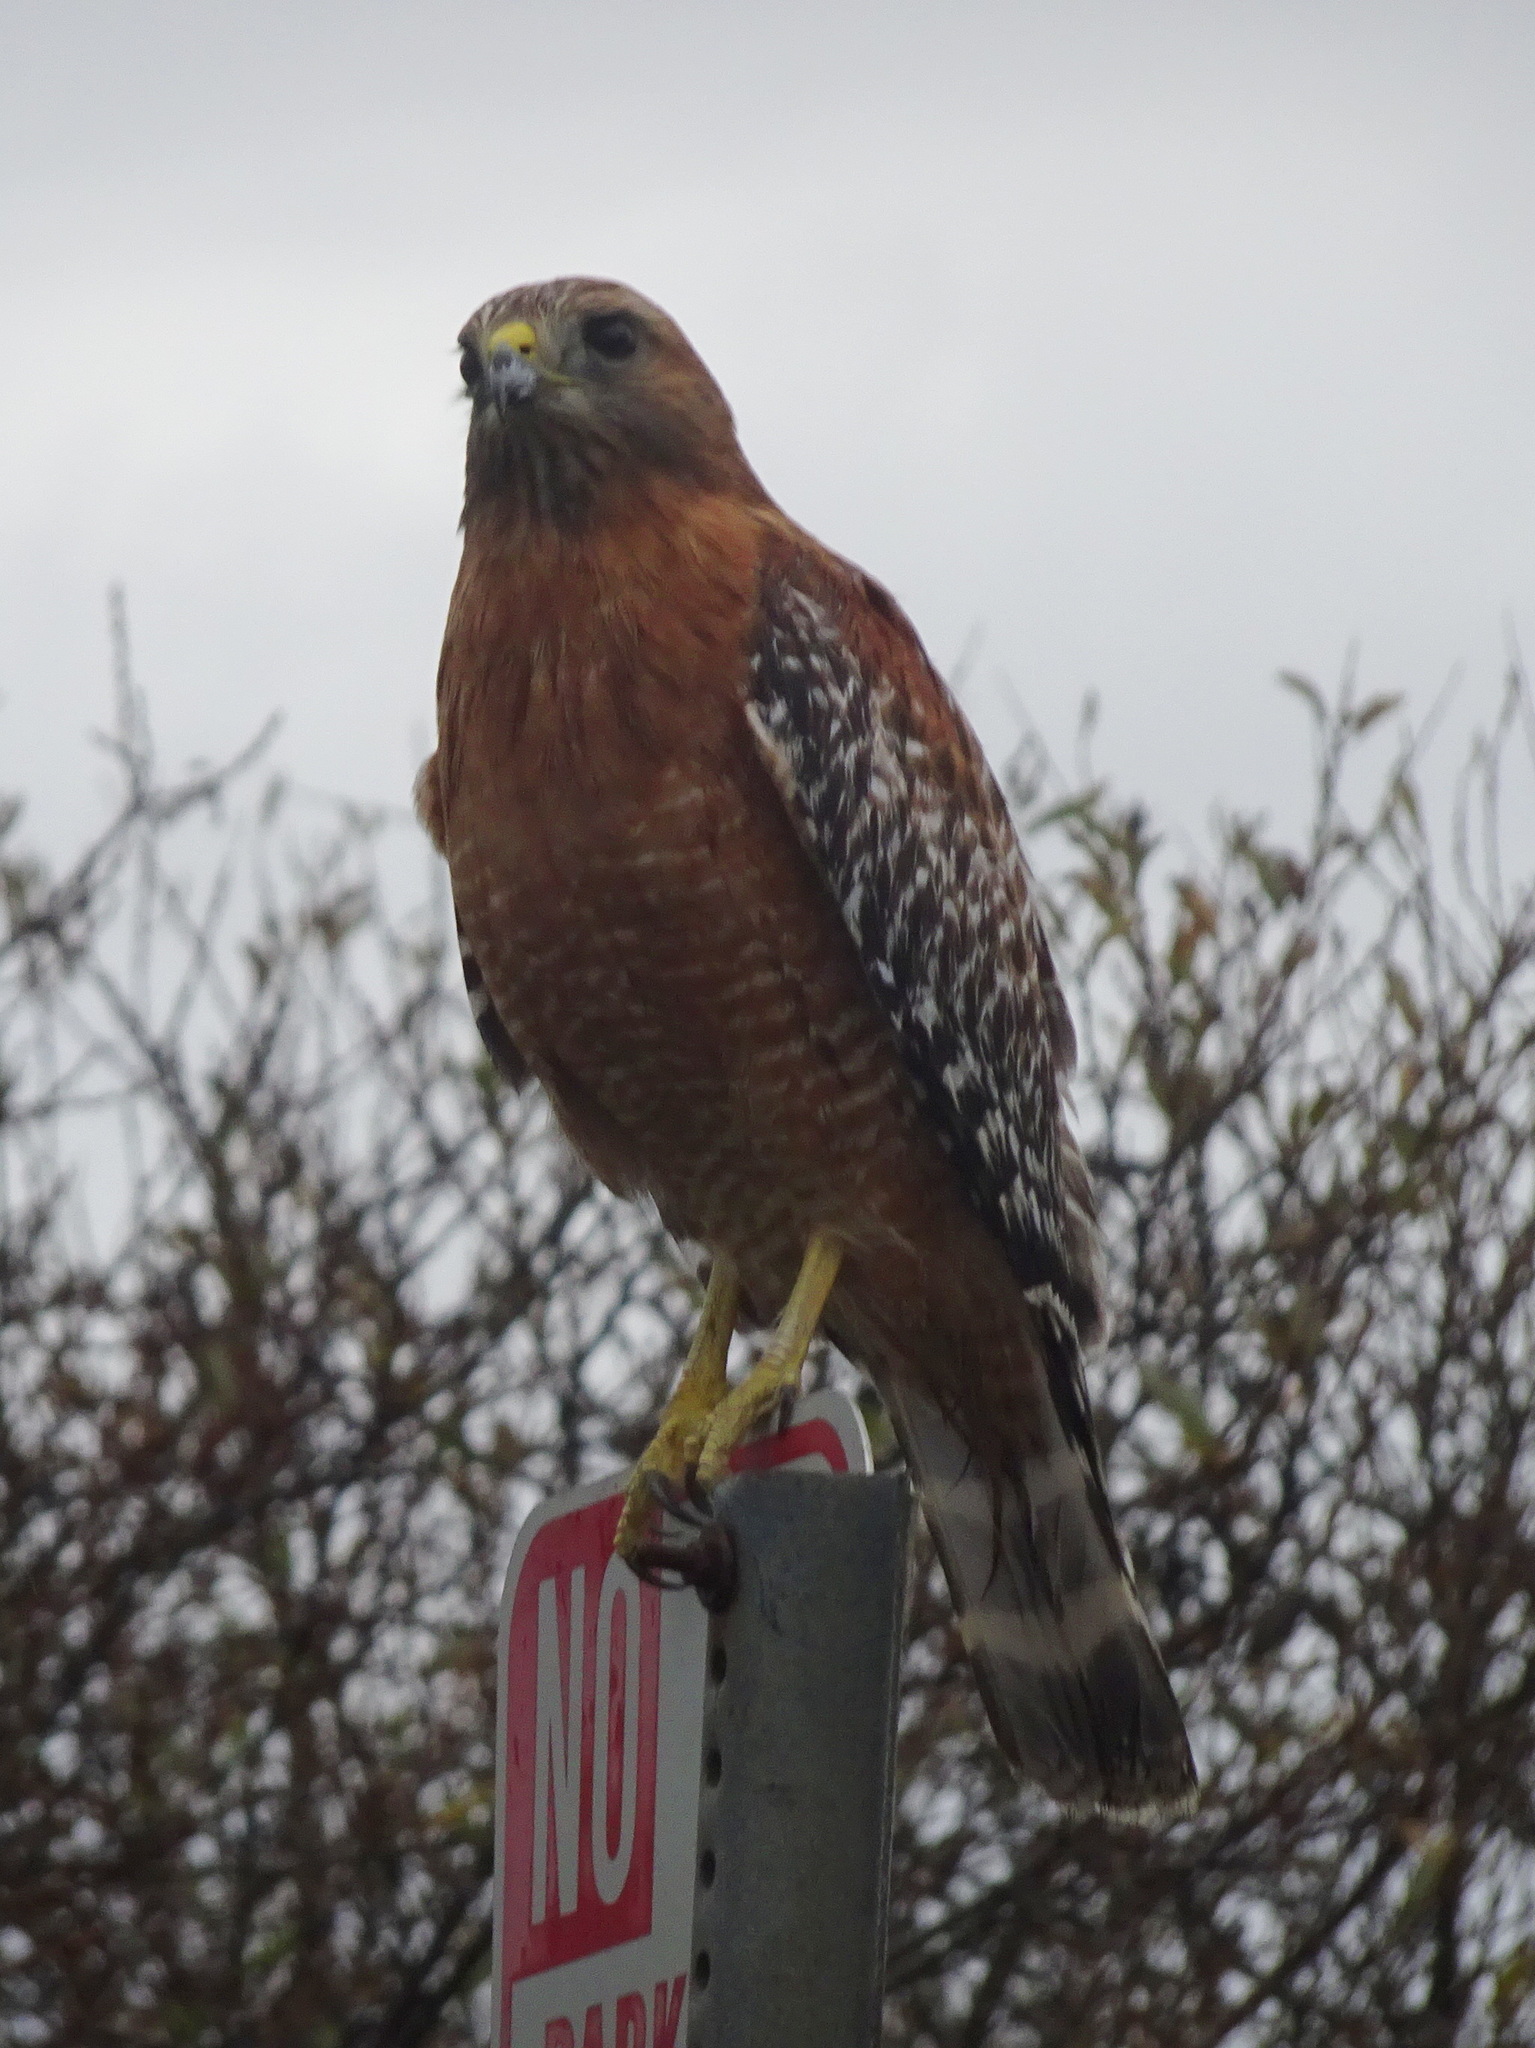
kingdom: Animalia
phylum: Chordata
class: Aves
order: Accipitriformes
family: Accipitridae
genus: Buteo
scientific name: Buteo lineatus
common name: Red-shouldered hawk
